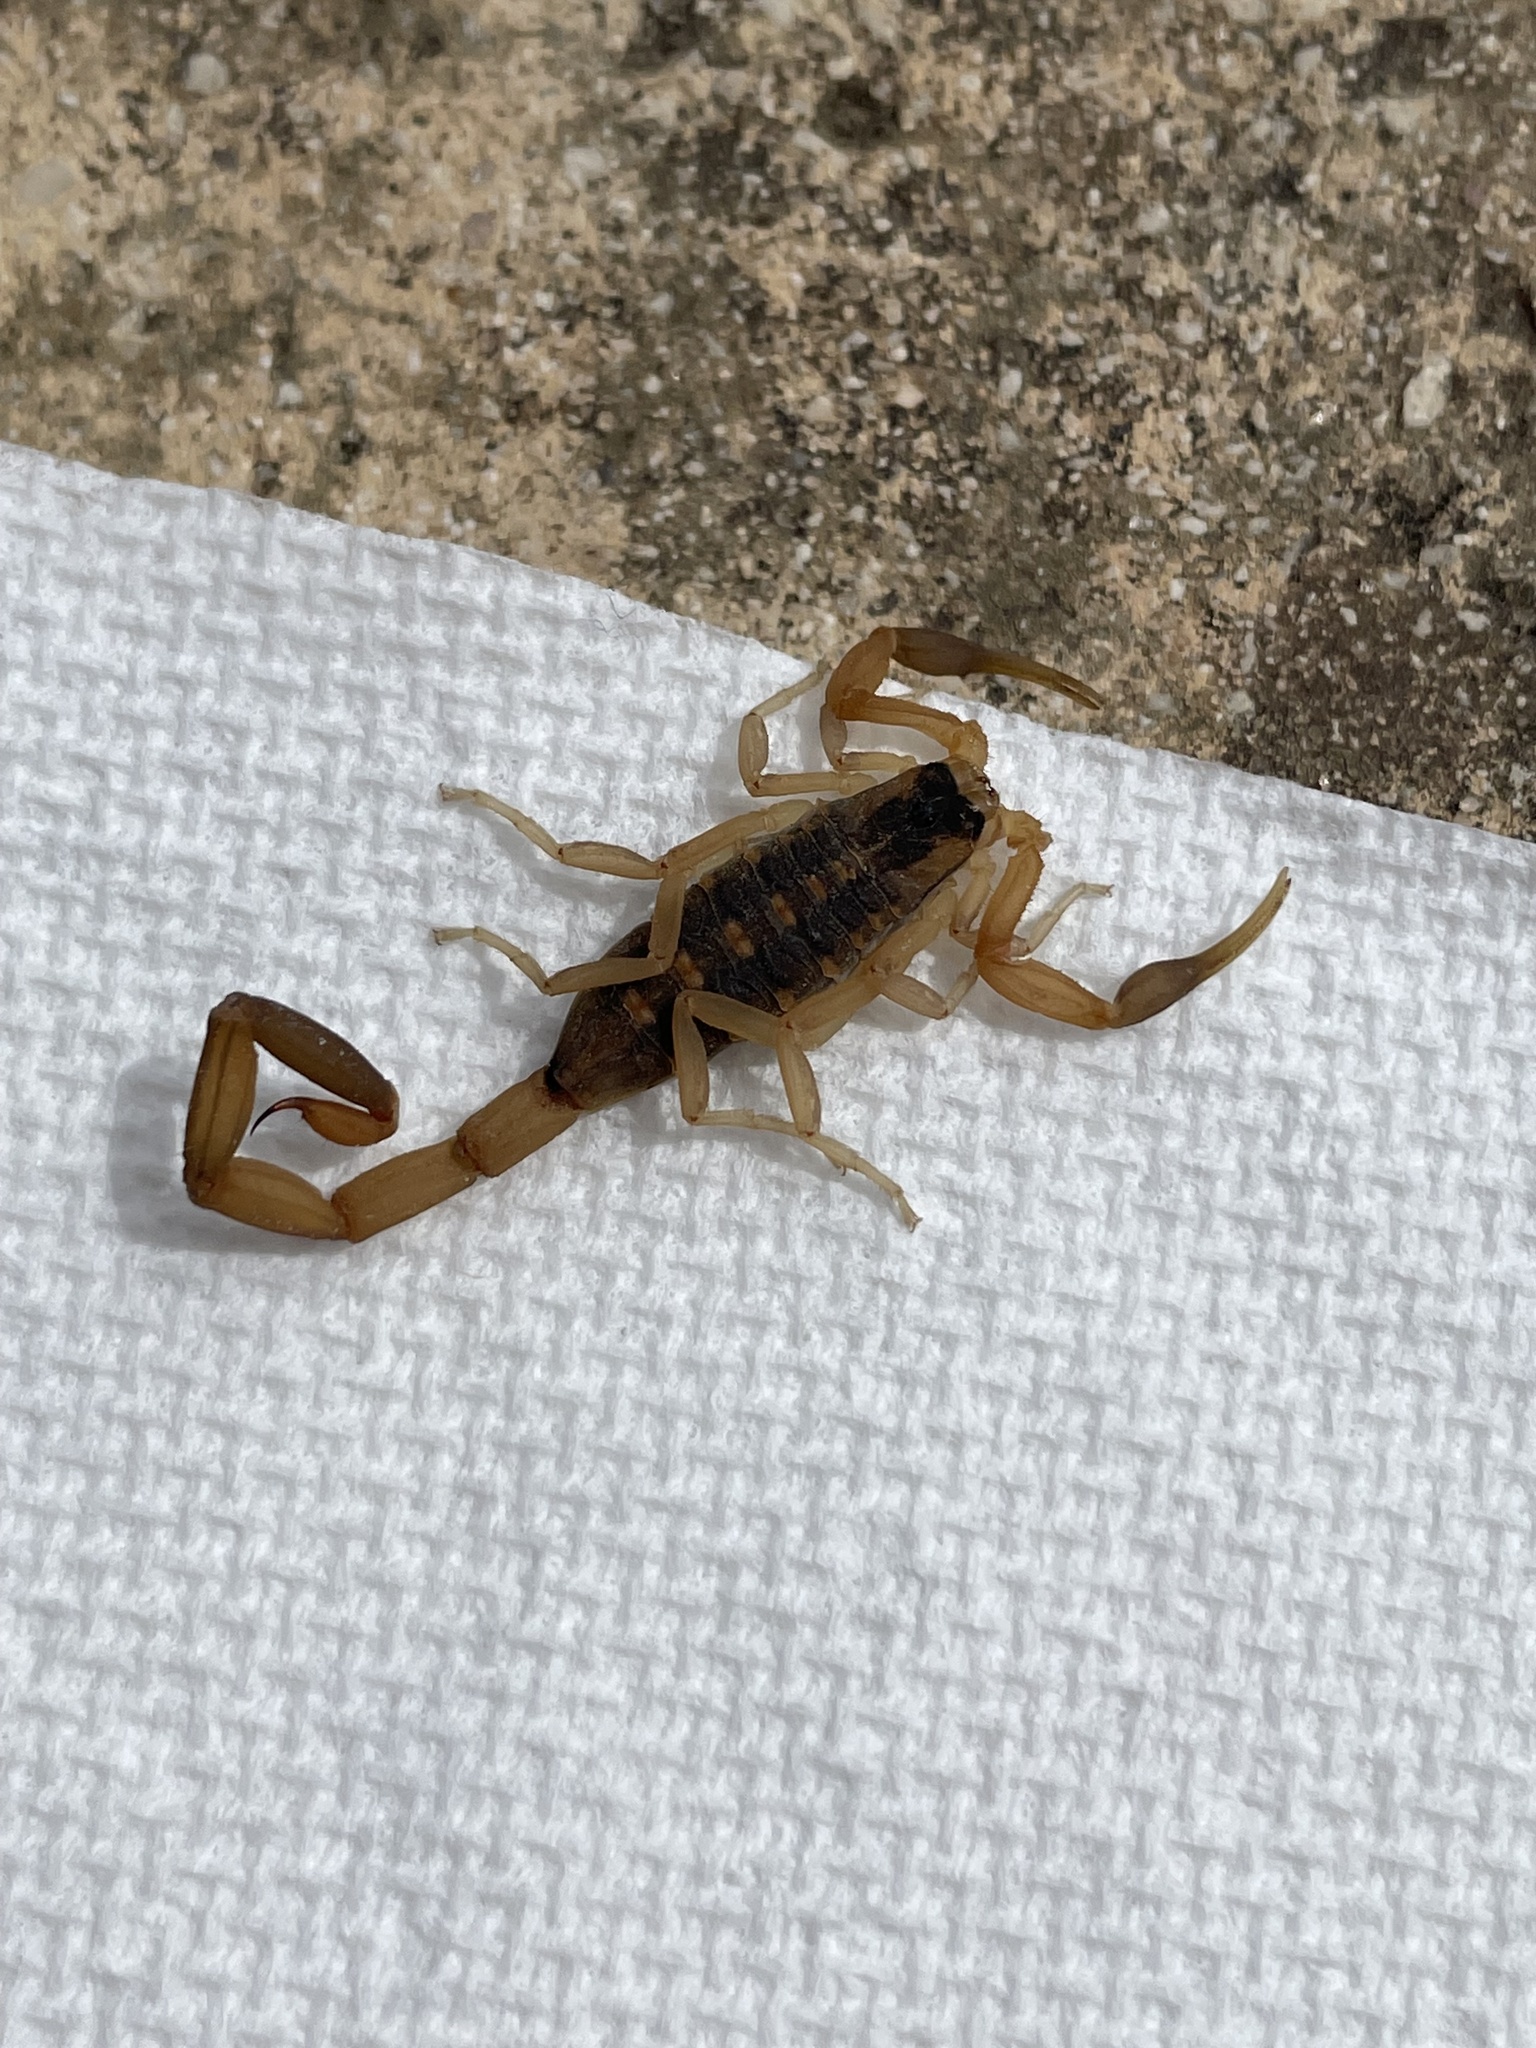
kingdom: Animalia
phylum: Arthropoda
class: Arachnida
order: Scorpiones
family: Buthidae
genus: Centruroides
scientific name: Centruroides vittatus
